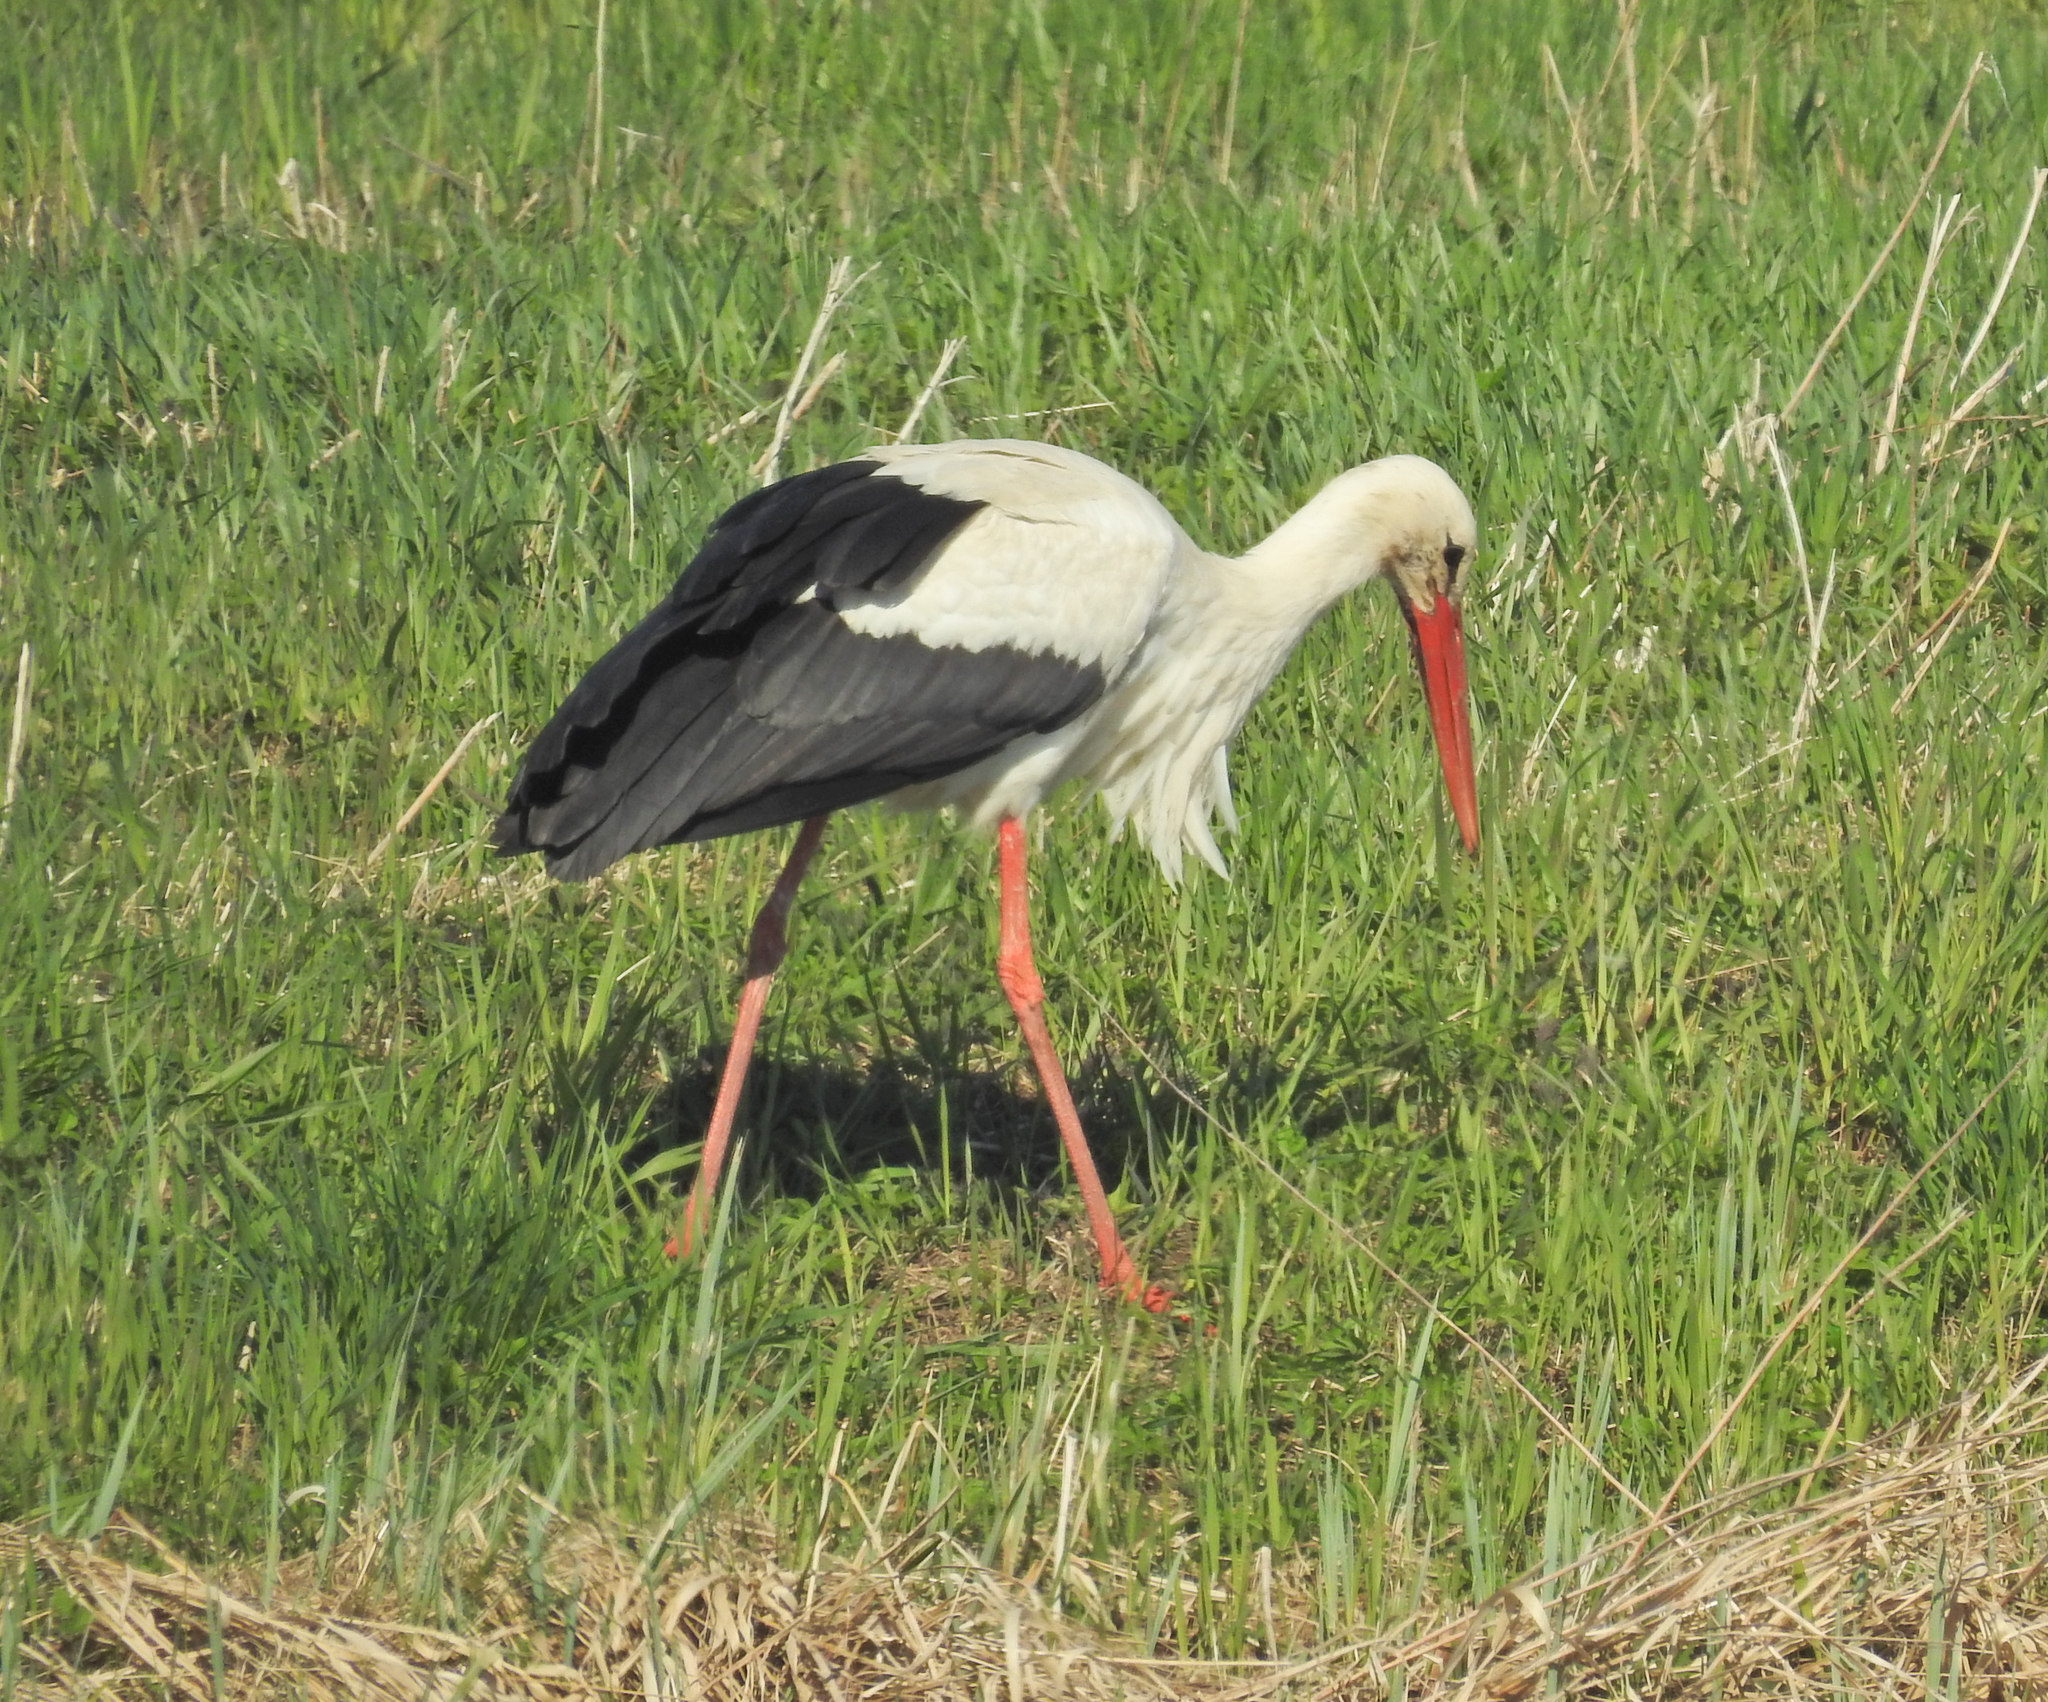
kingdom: Animalia
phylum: Chordata
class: Aves
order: Ciconiiformes
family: Ciconiidae
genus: Ciconia
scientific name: Ciconia ciconia
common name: White stork
